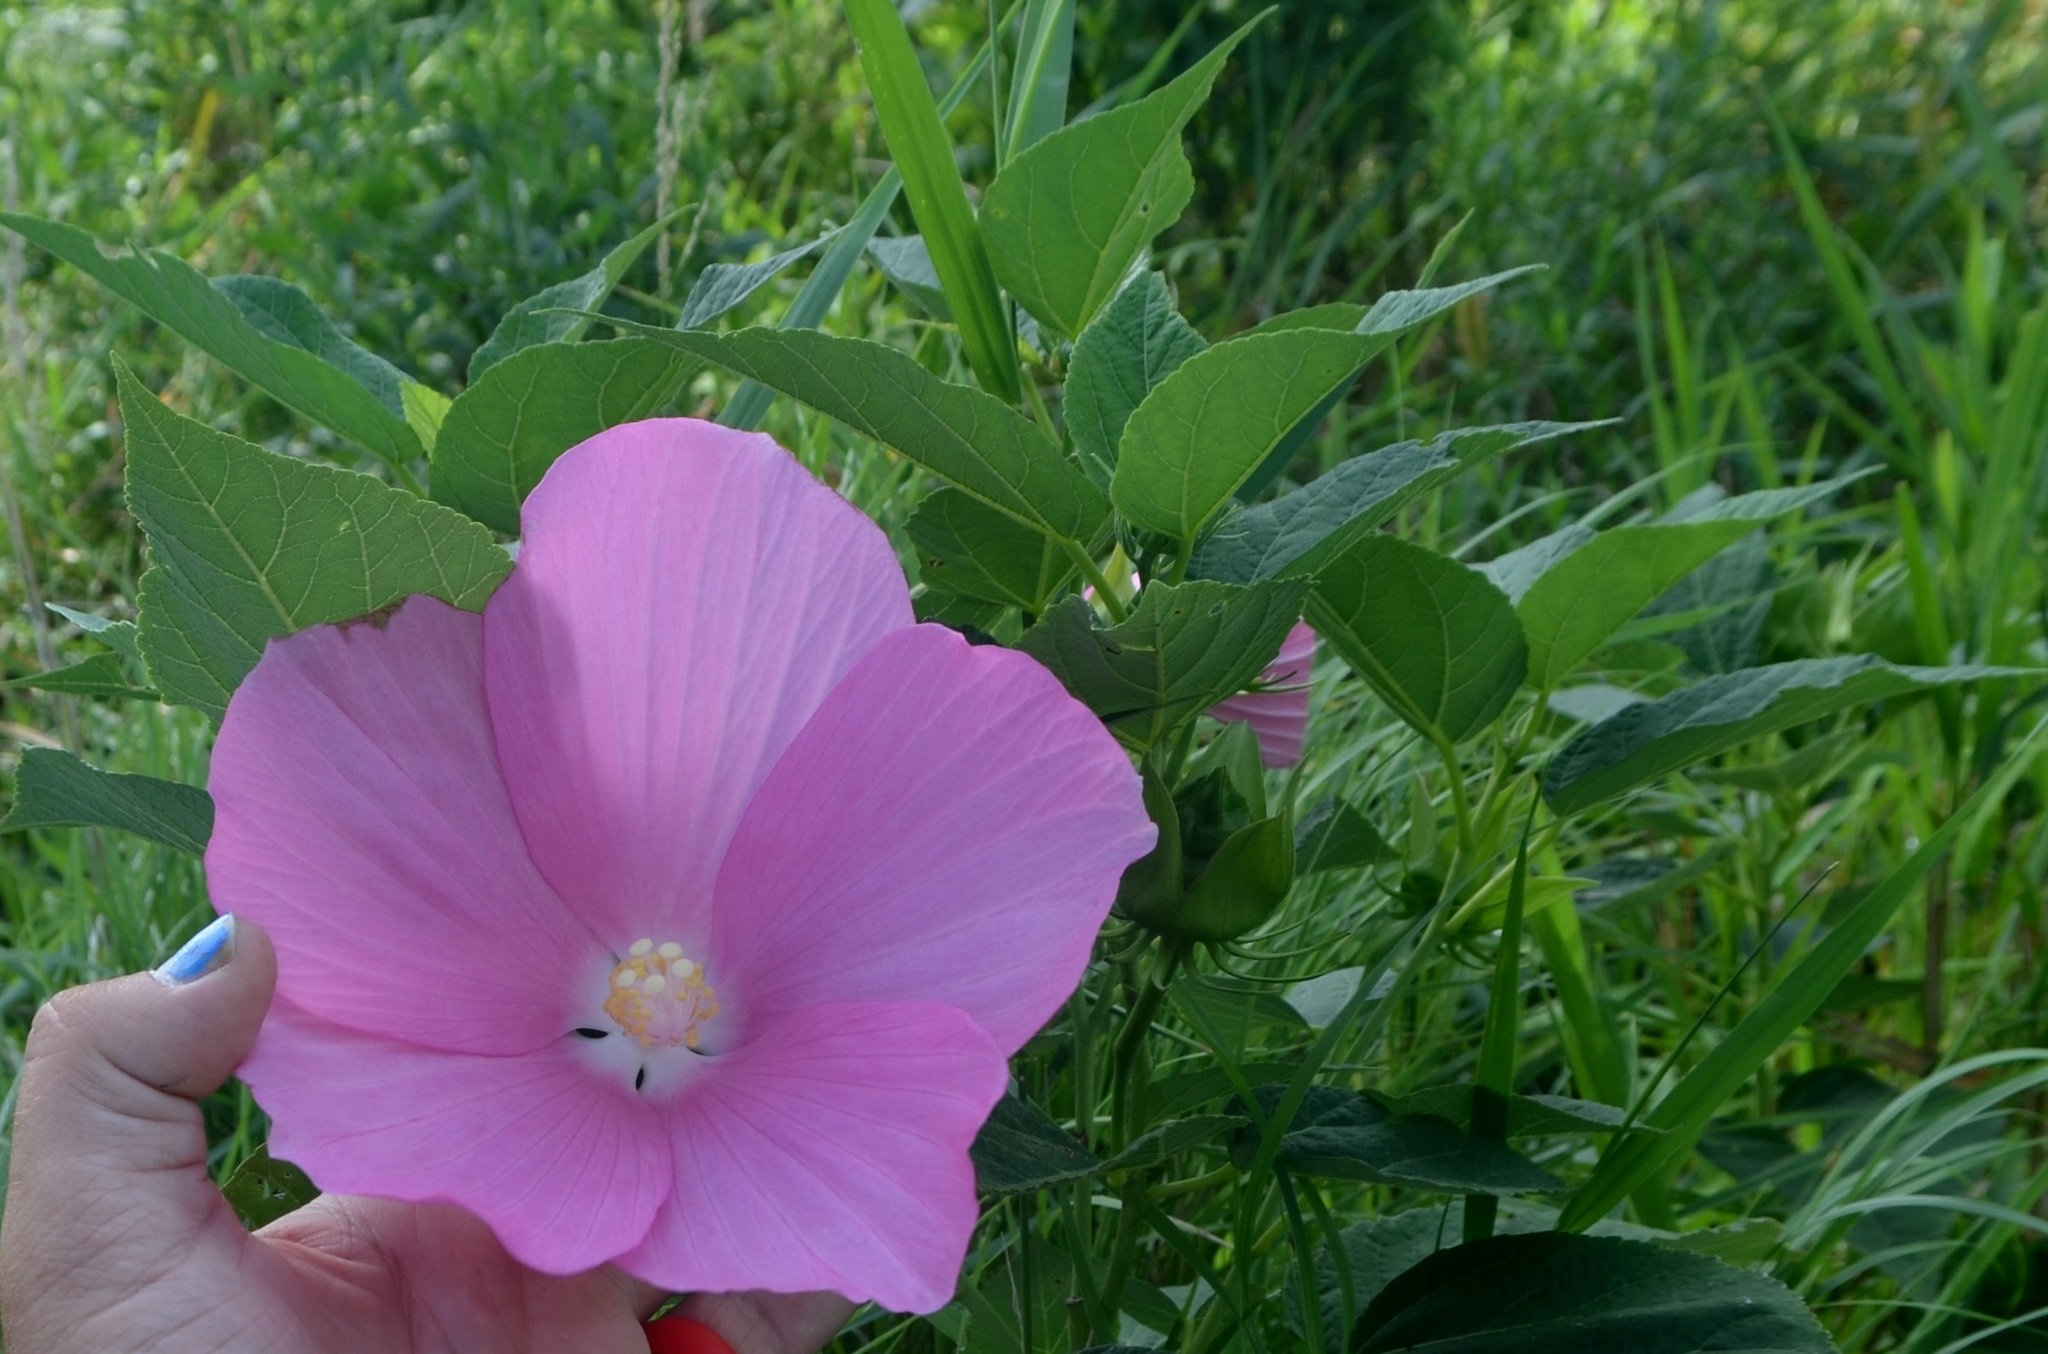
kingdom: Plantae
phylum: Tracheophyta
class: Magnoliopsida
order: Malvales
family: Malvaceae
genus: Hibiscus
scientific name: Hibiscus moscheutos
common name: Common rose-mallow
